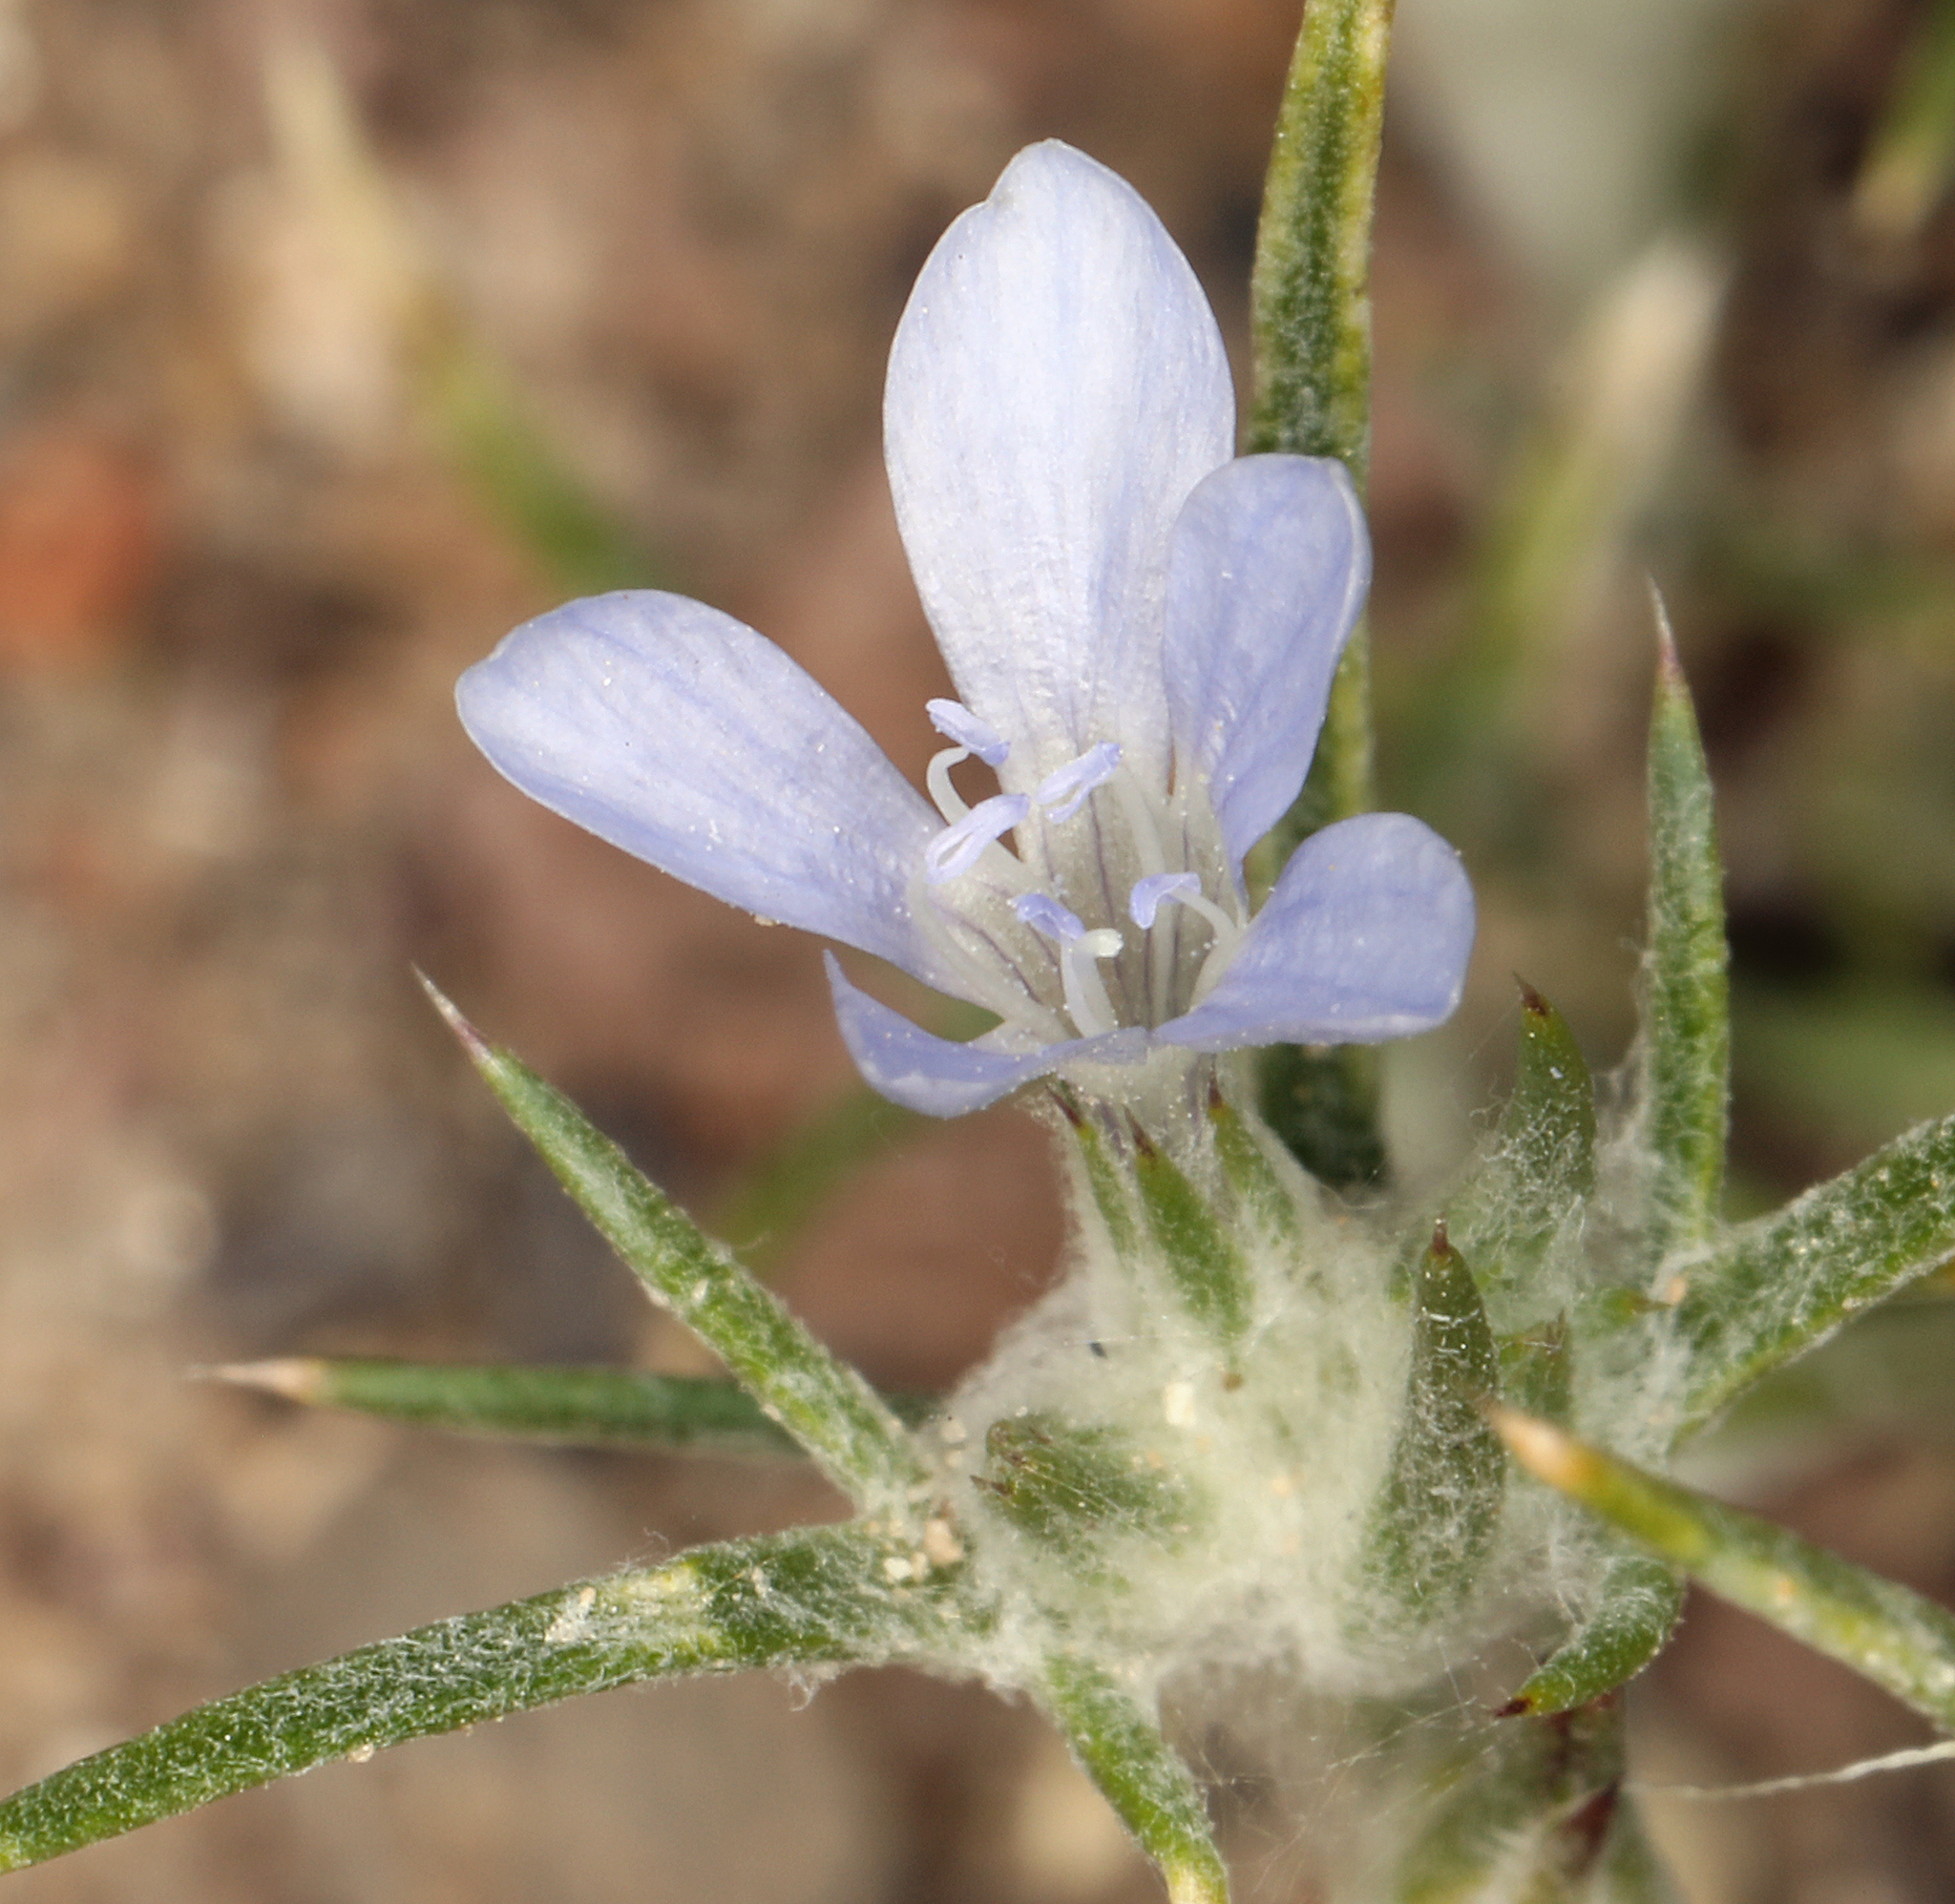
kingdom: Plantae
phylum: Tracheophyta
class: Magnoliopsida
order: Ericales
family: Polemoniaceae
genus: Eriastrum
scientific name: Eriastrum wilcoxii
